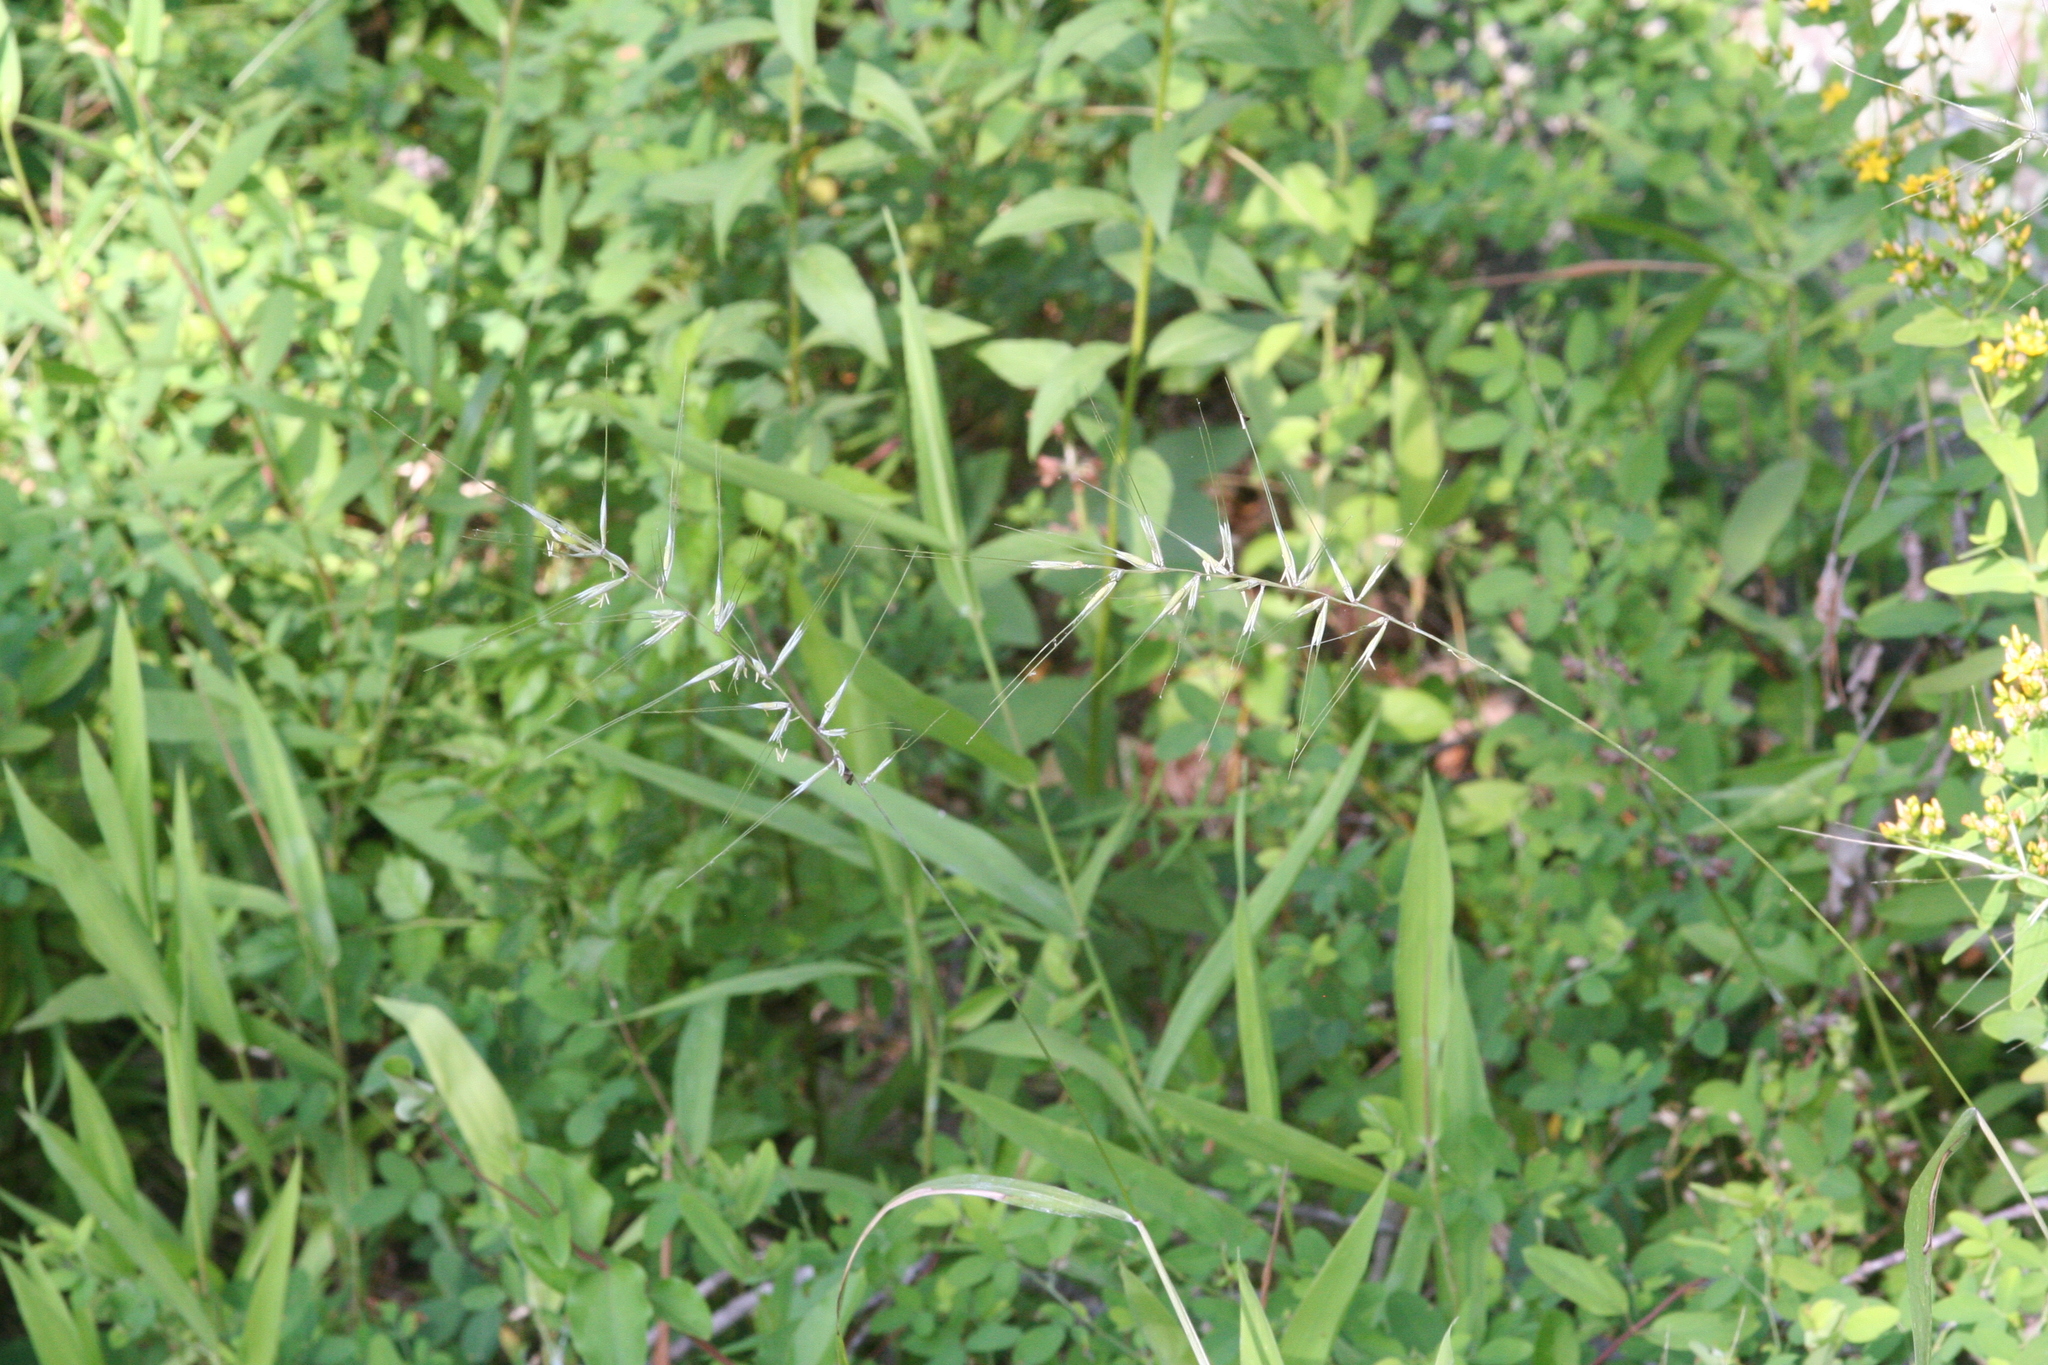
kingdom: Plantae
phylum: Tracheophyta
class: Liliopsida
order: Poales
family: Poaceae
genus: Elymus
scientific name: Elymus hystrix
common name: Bottlebrush grass
